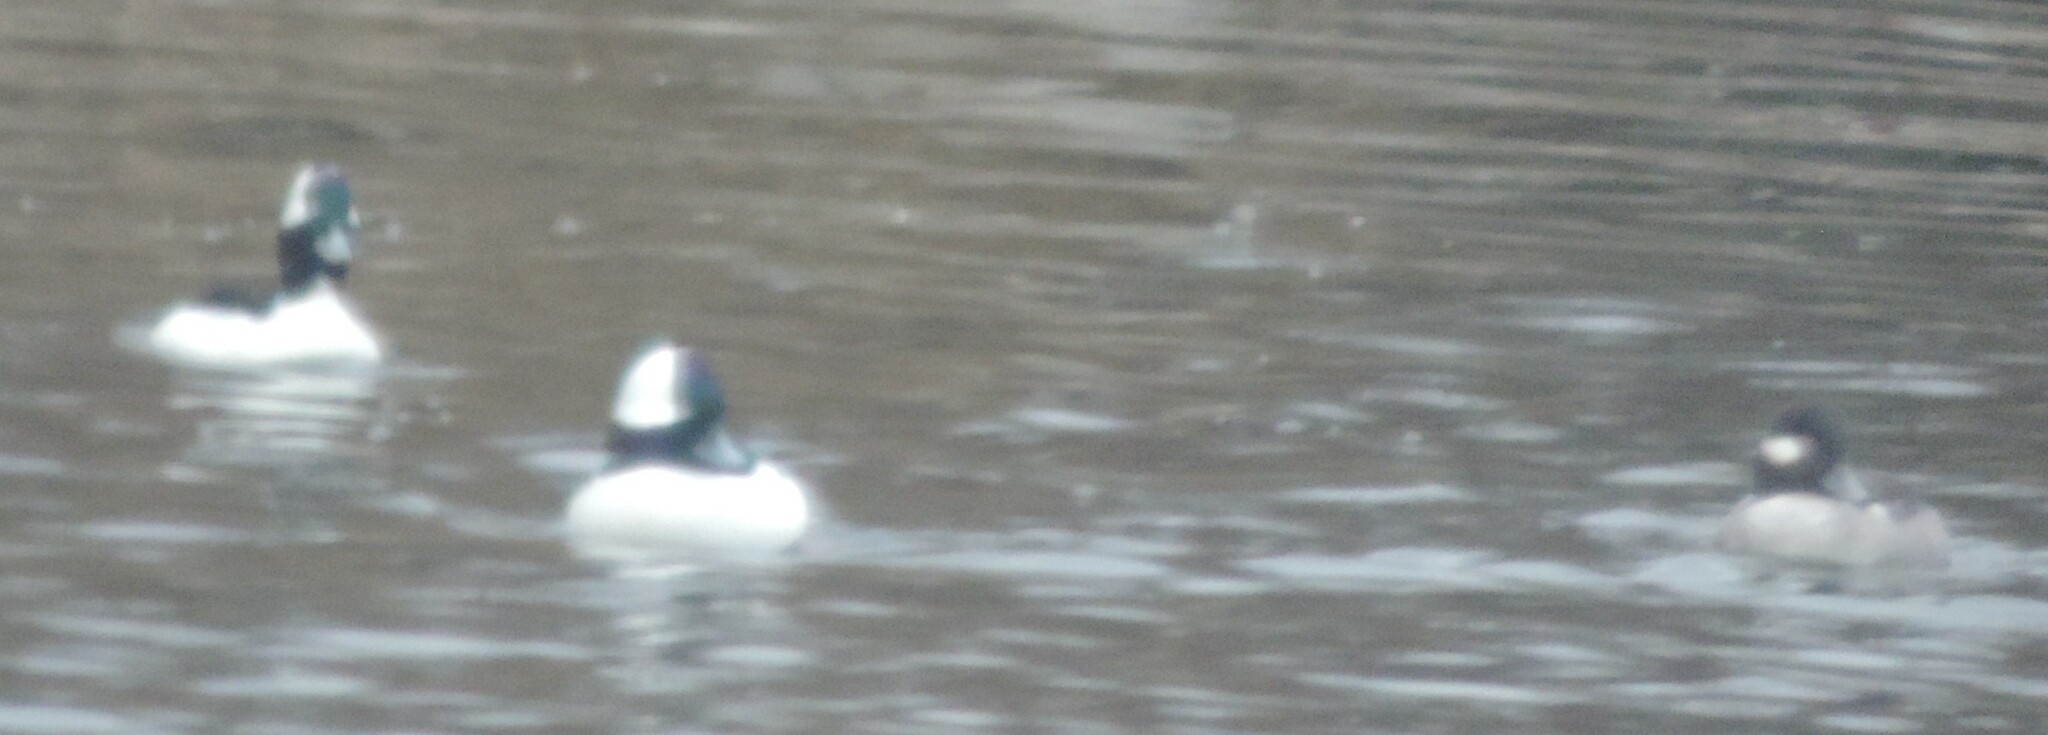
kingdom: Animalia
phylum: Chordata
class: Aves
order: Anseriformes
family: Anatidae
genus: Bucephala
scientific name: Bucephala albeola
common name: Bufflehead
